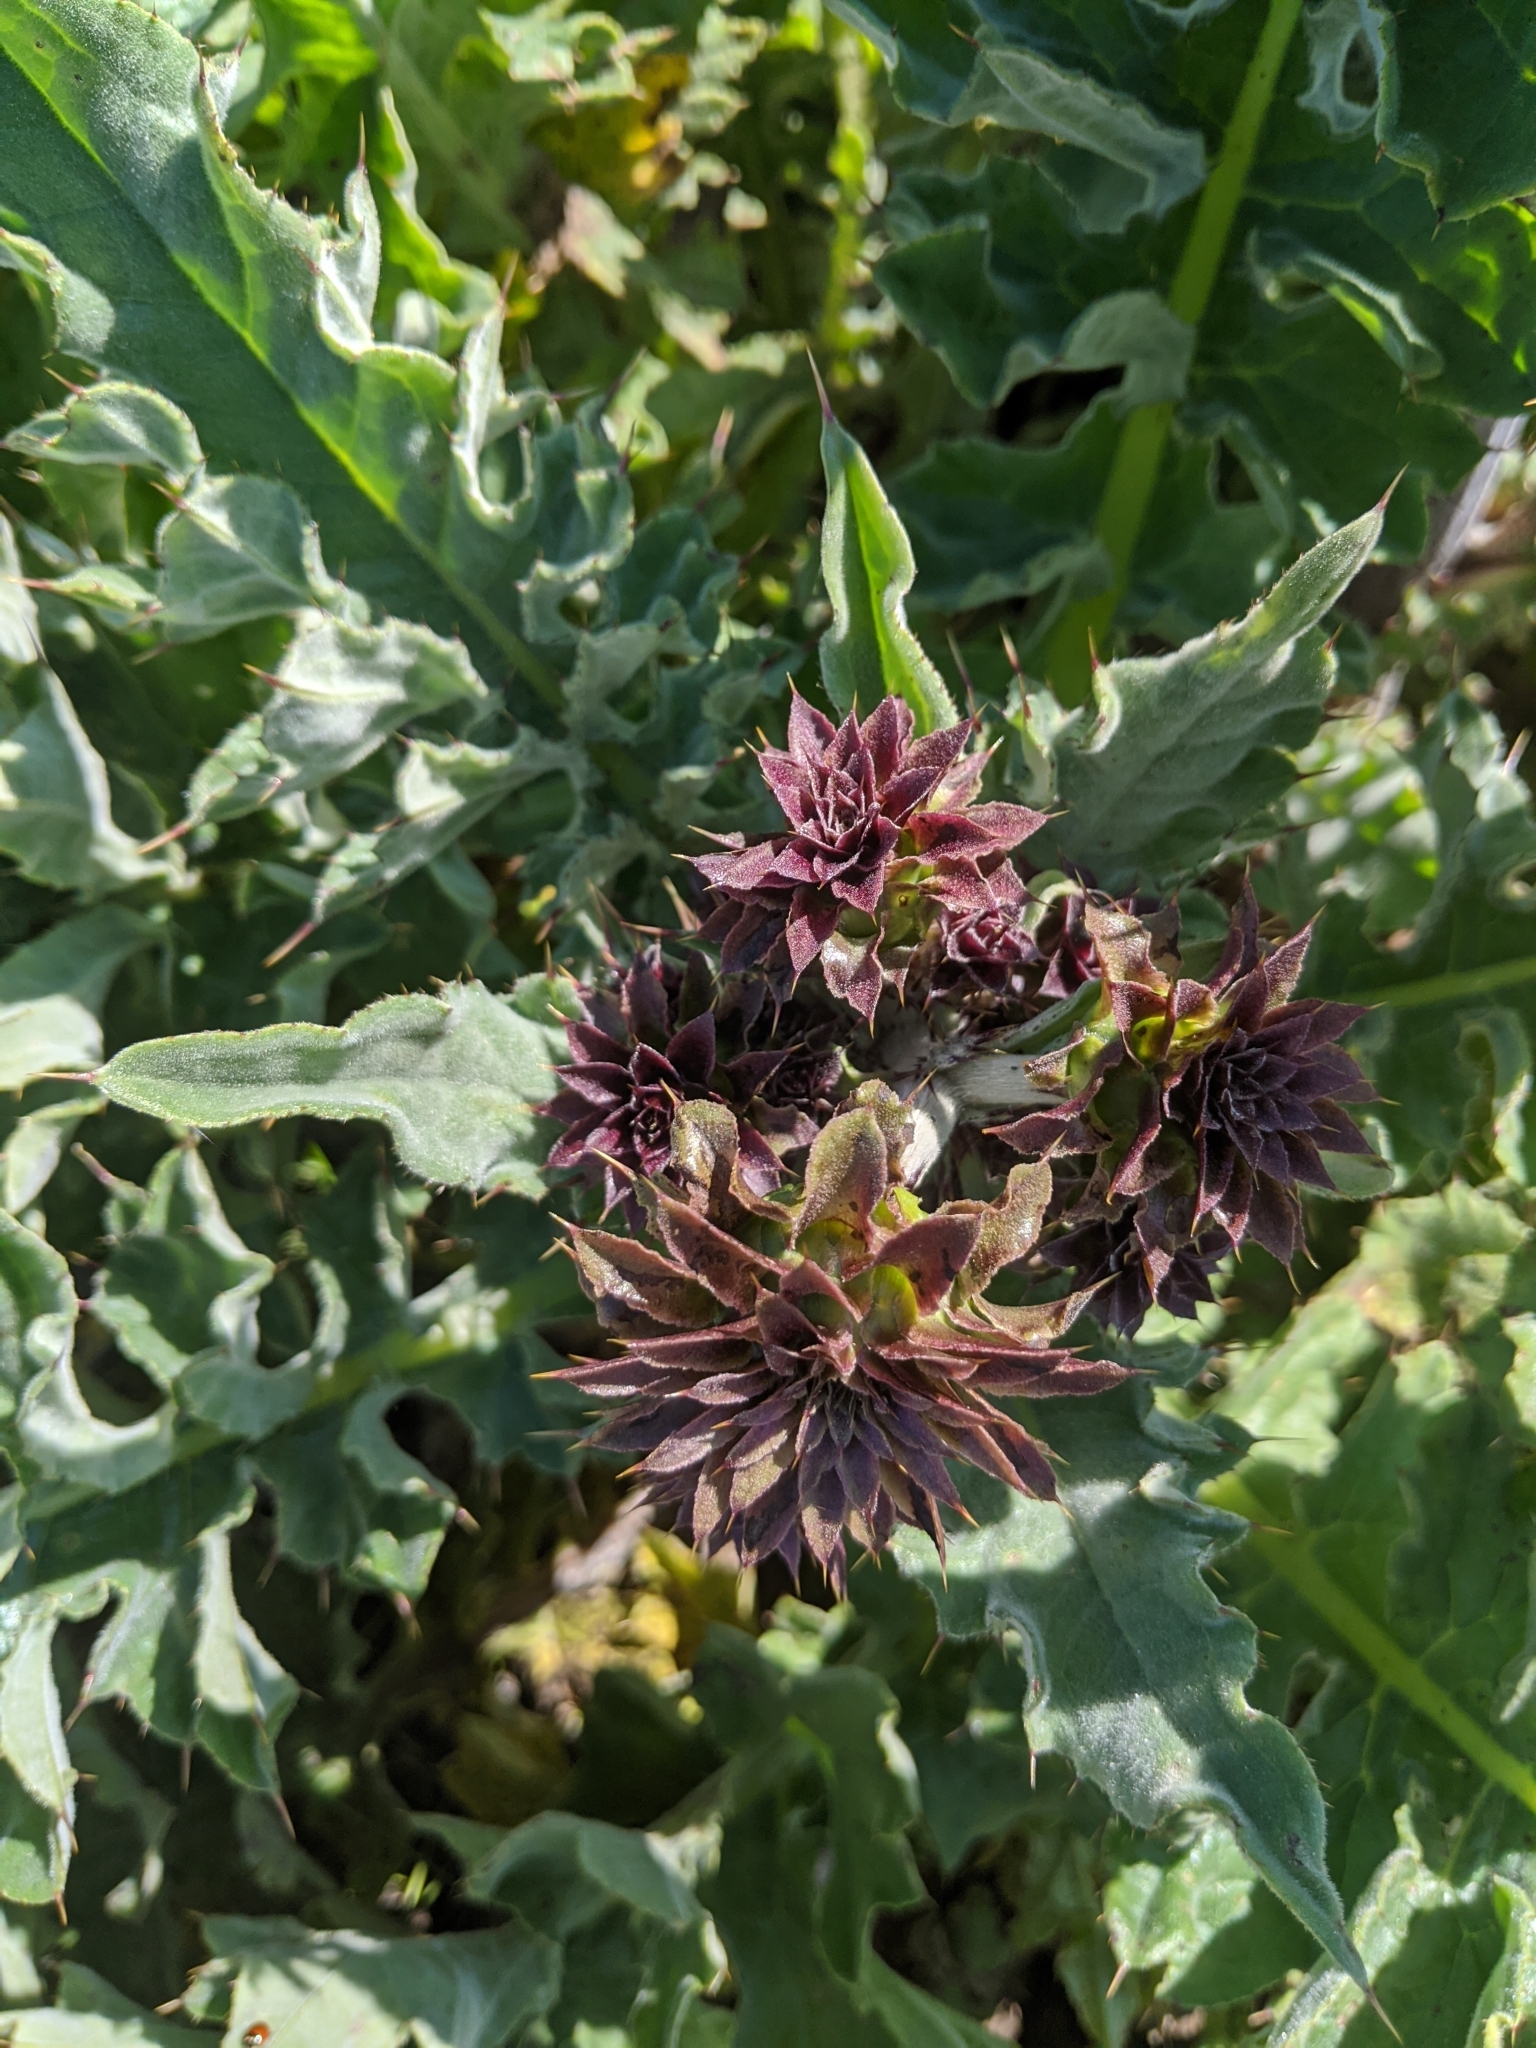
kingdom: Plantae
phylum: Tracheophyta
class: Magnoliopsida
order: Asterales
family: Asteraceae
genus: Cirsium
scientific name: Cirsium fontinale
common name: Fountain thistle
